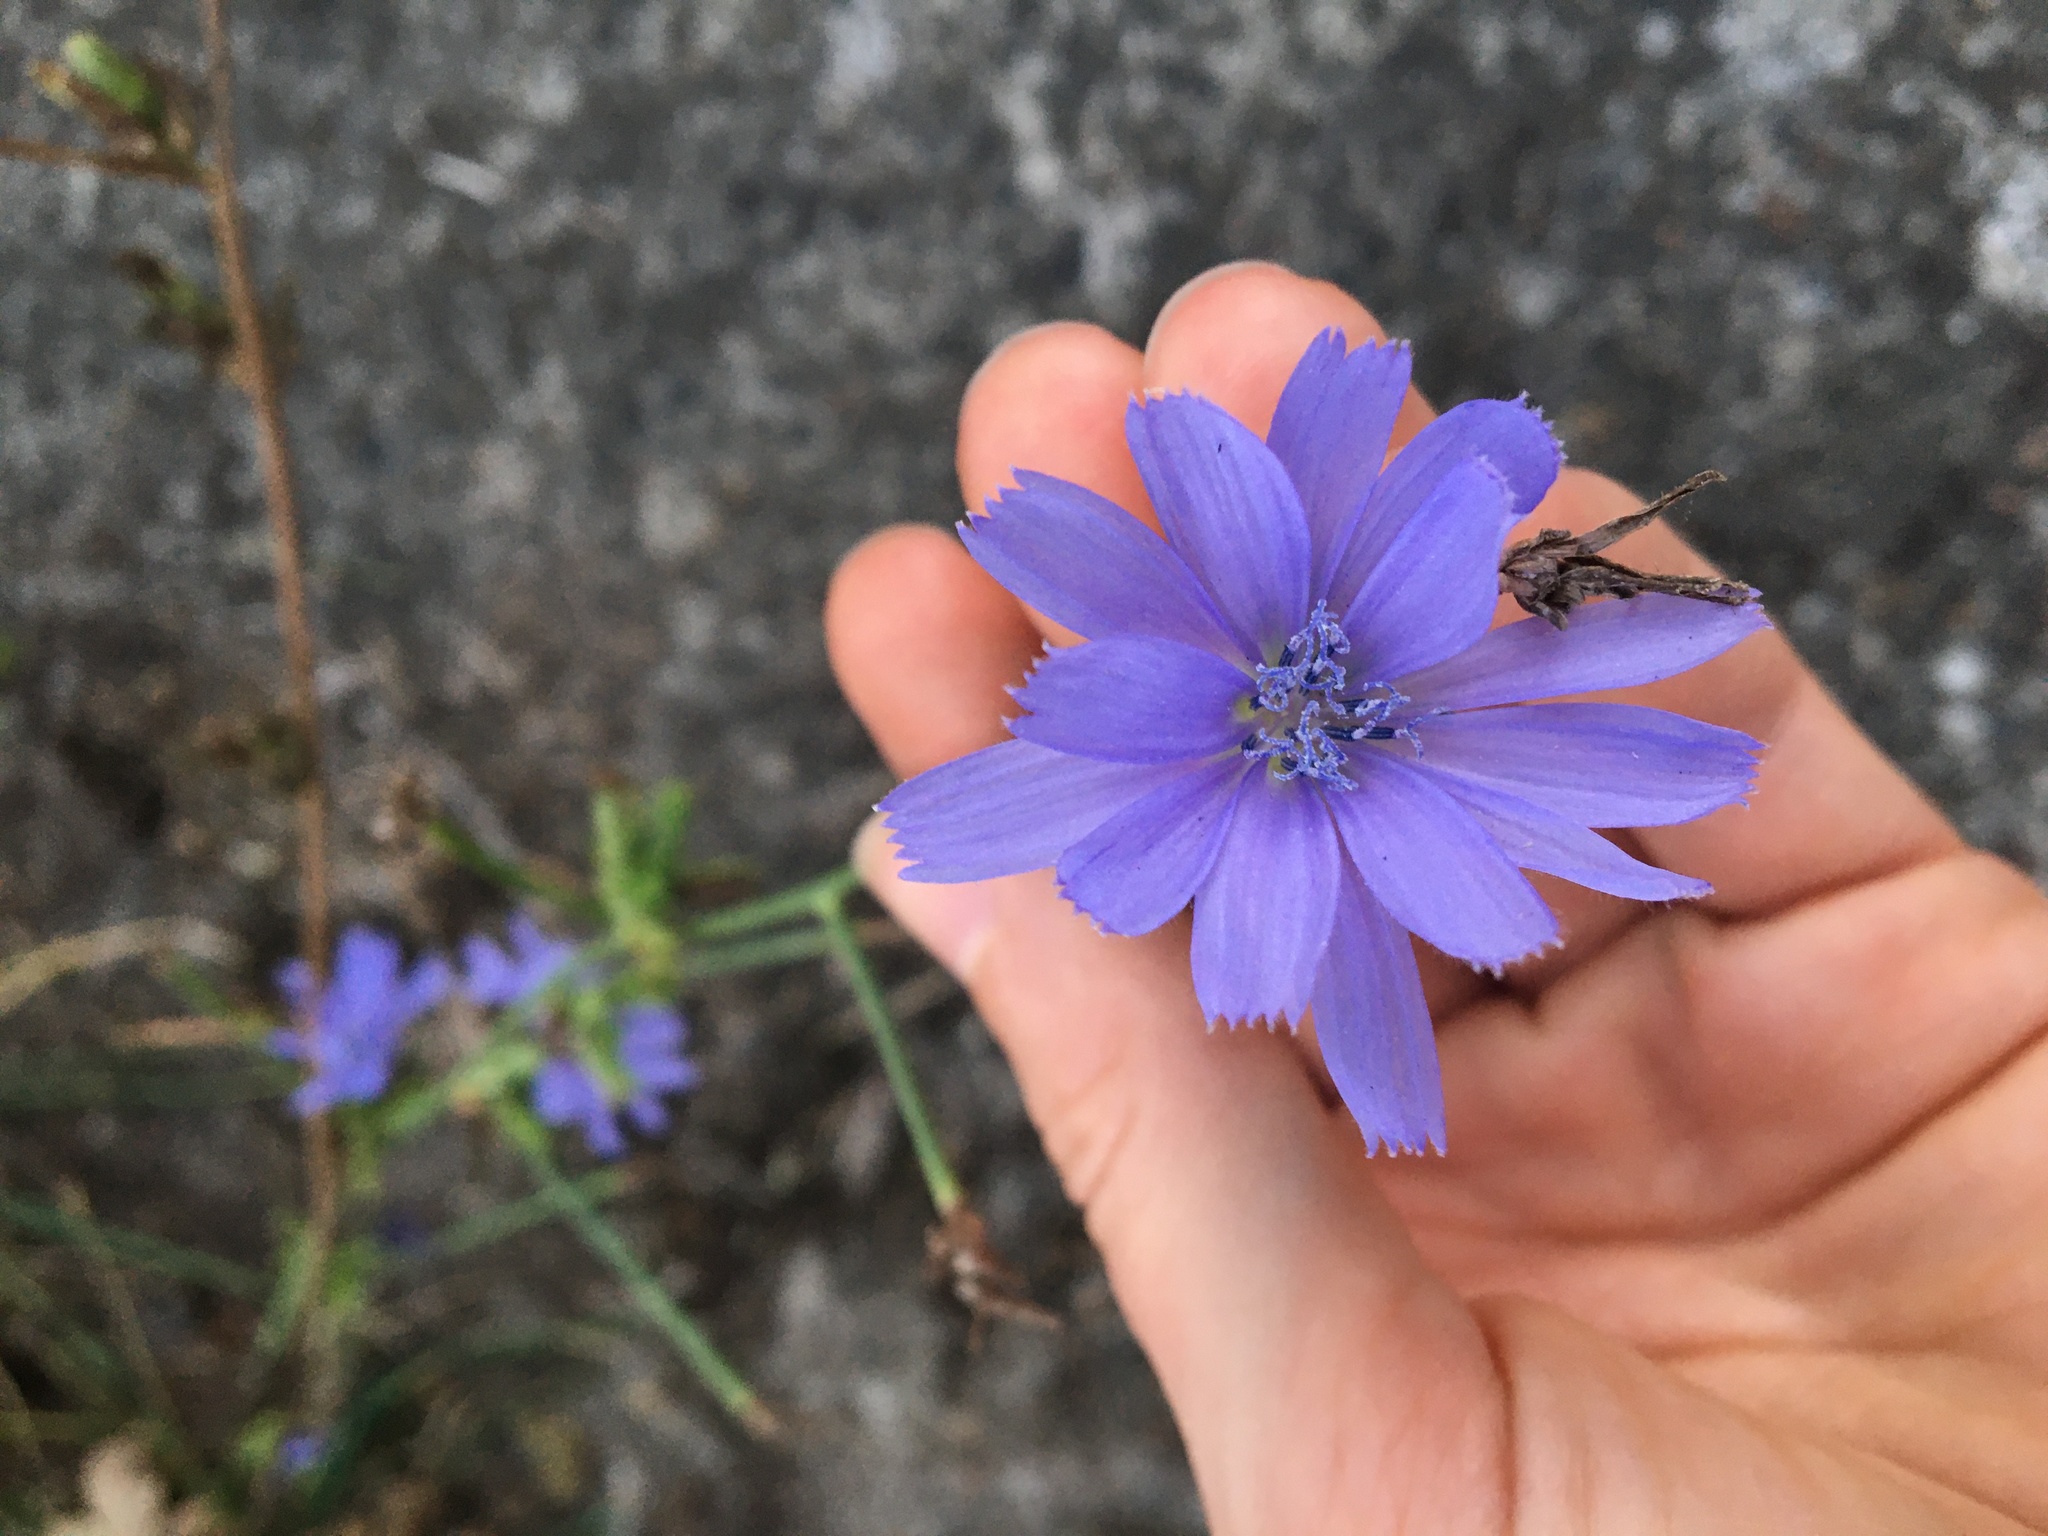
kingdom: Plantae
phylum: Tracheophyta
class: Magnoliopsida
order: Asterales
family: Asteraceae
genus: Cichorium
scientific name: Cichorium intybus
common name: Chicory
